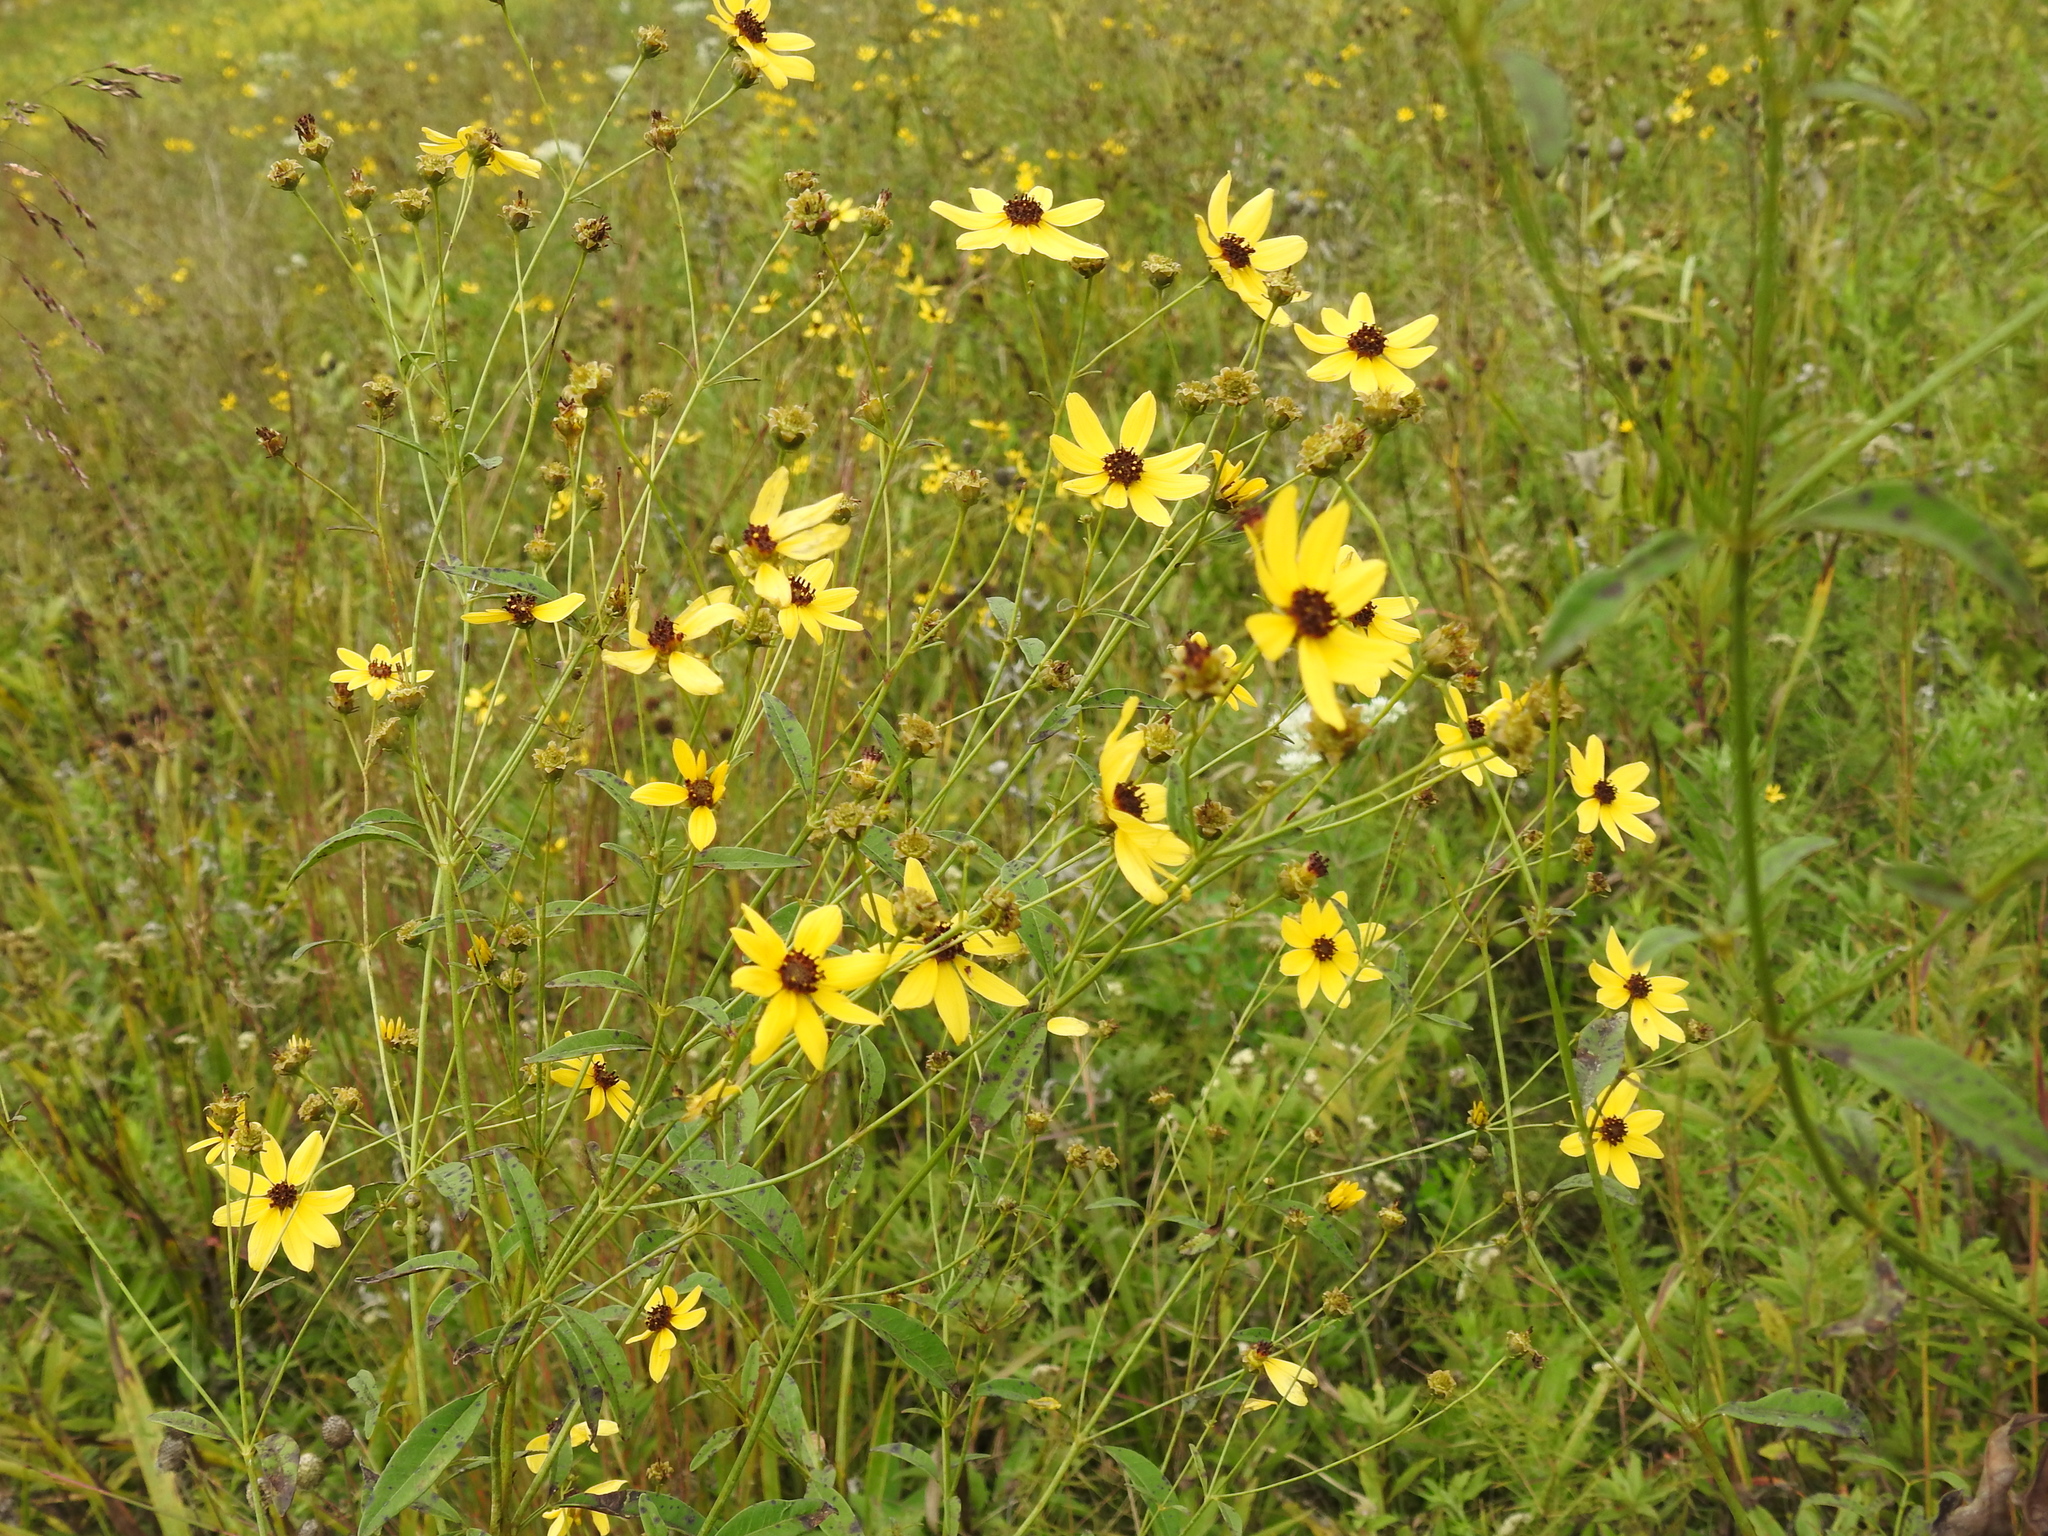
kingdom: Plantae
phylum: Tracheophyta
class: Magnoliopsida
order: Asterales
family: Asteraceae
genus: Coreopsis
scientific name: Coreopsis tripteris
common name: Tall coreopsis
